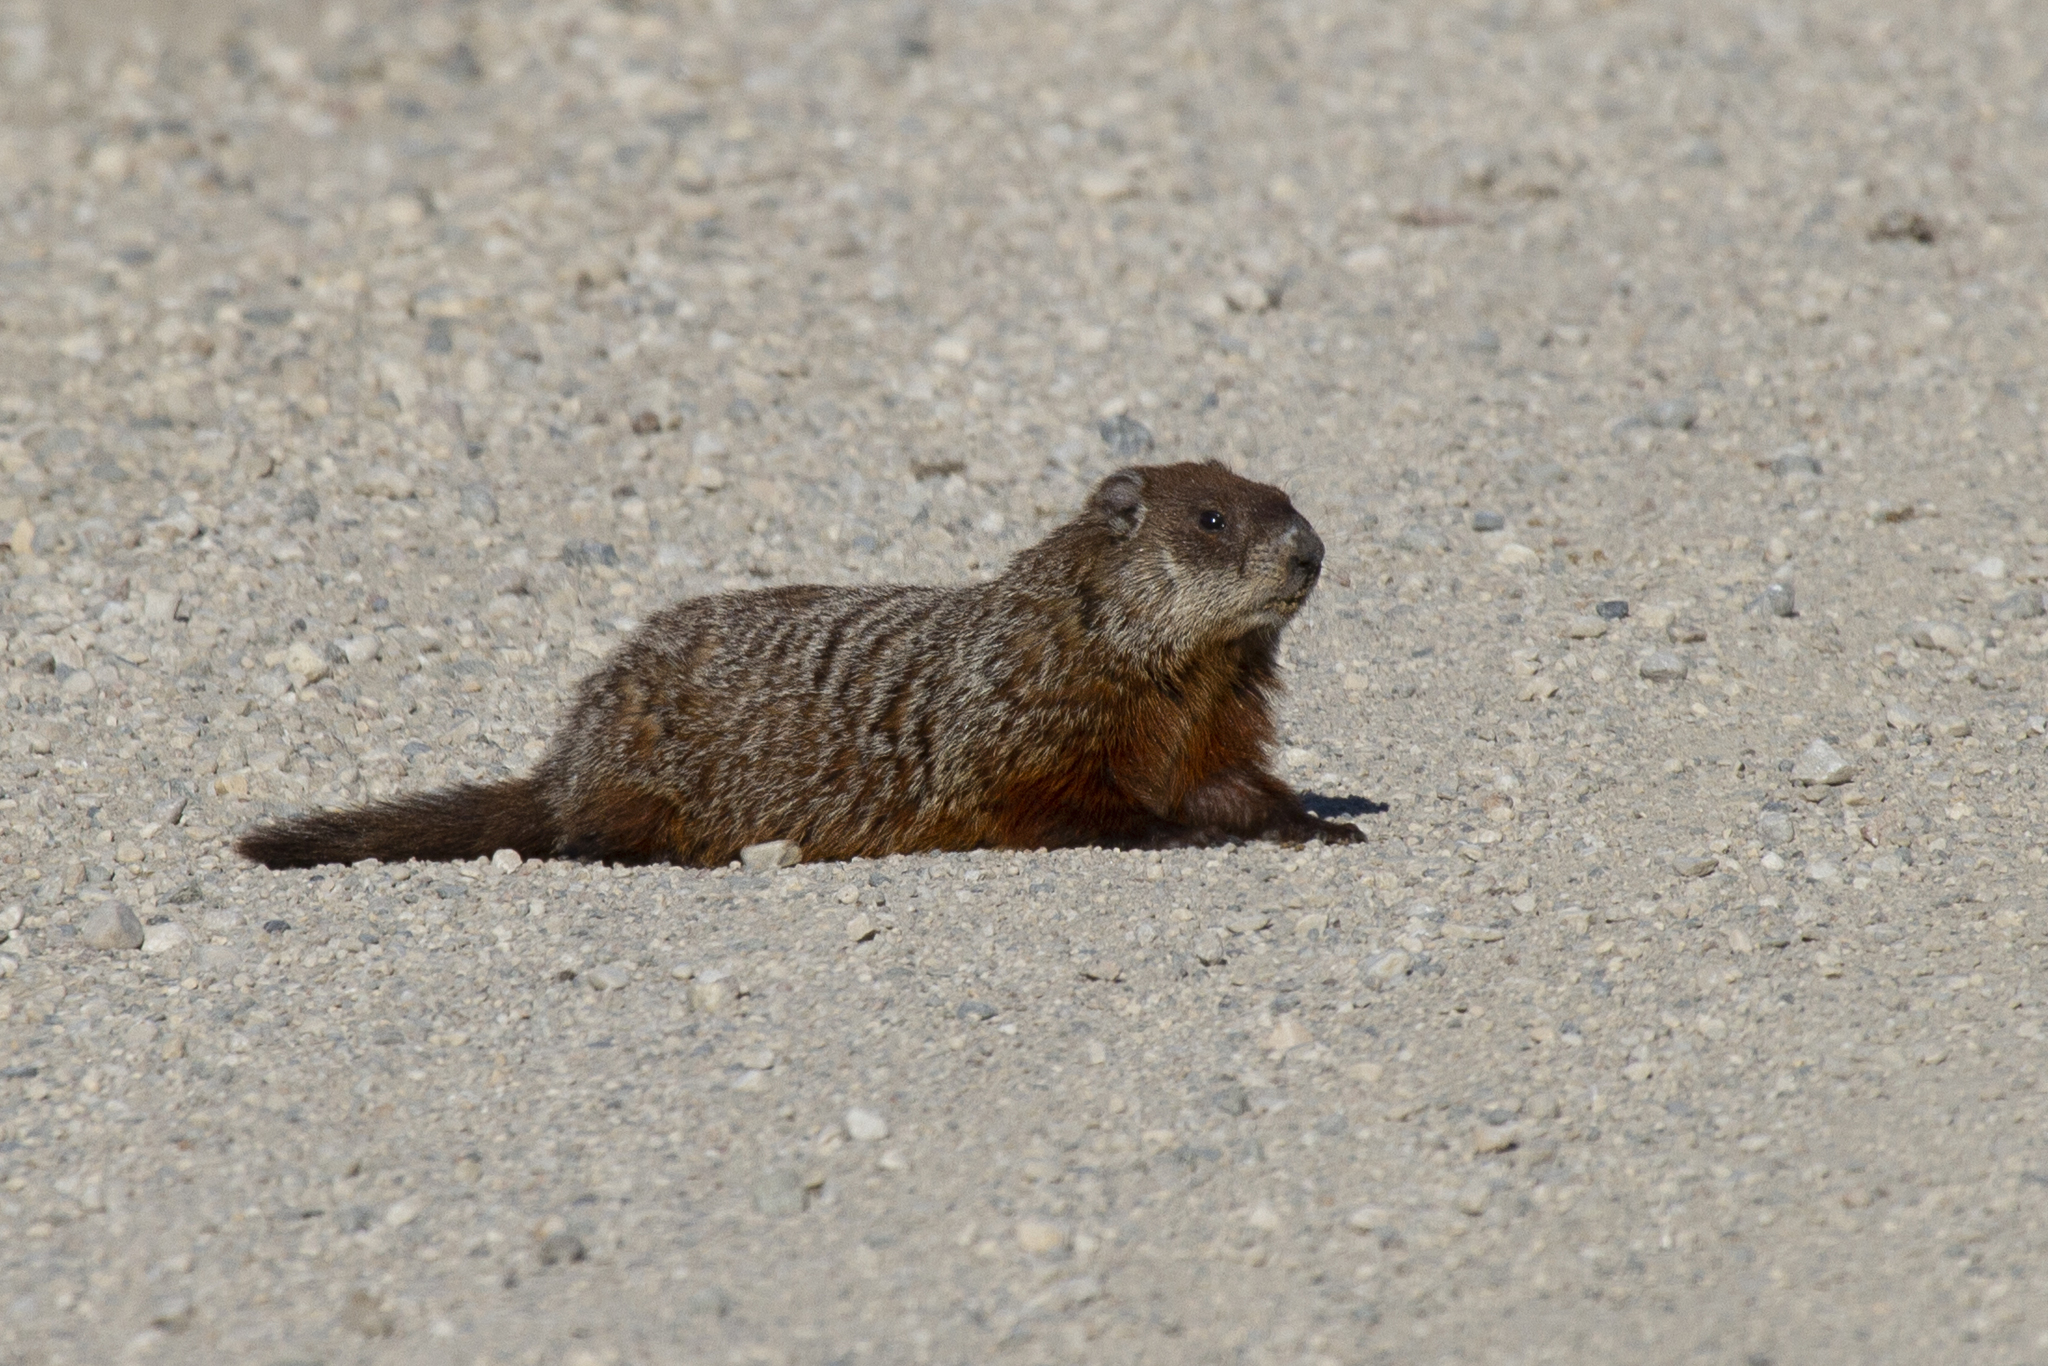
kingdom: Animalia
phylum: Chordata
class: Mammalia
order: Rodentia
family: Sciuridae
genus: Marmota
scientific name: Marmota monax
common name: Groundhog
